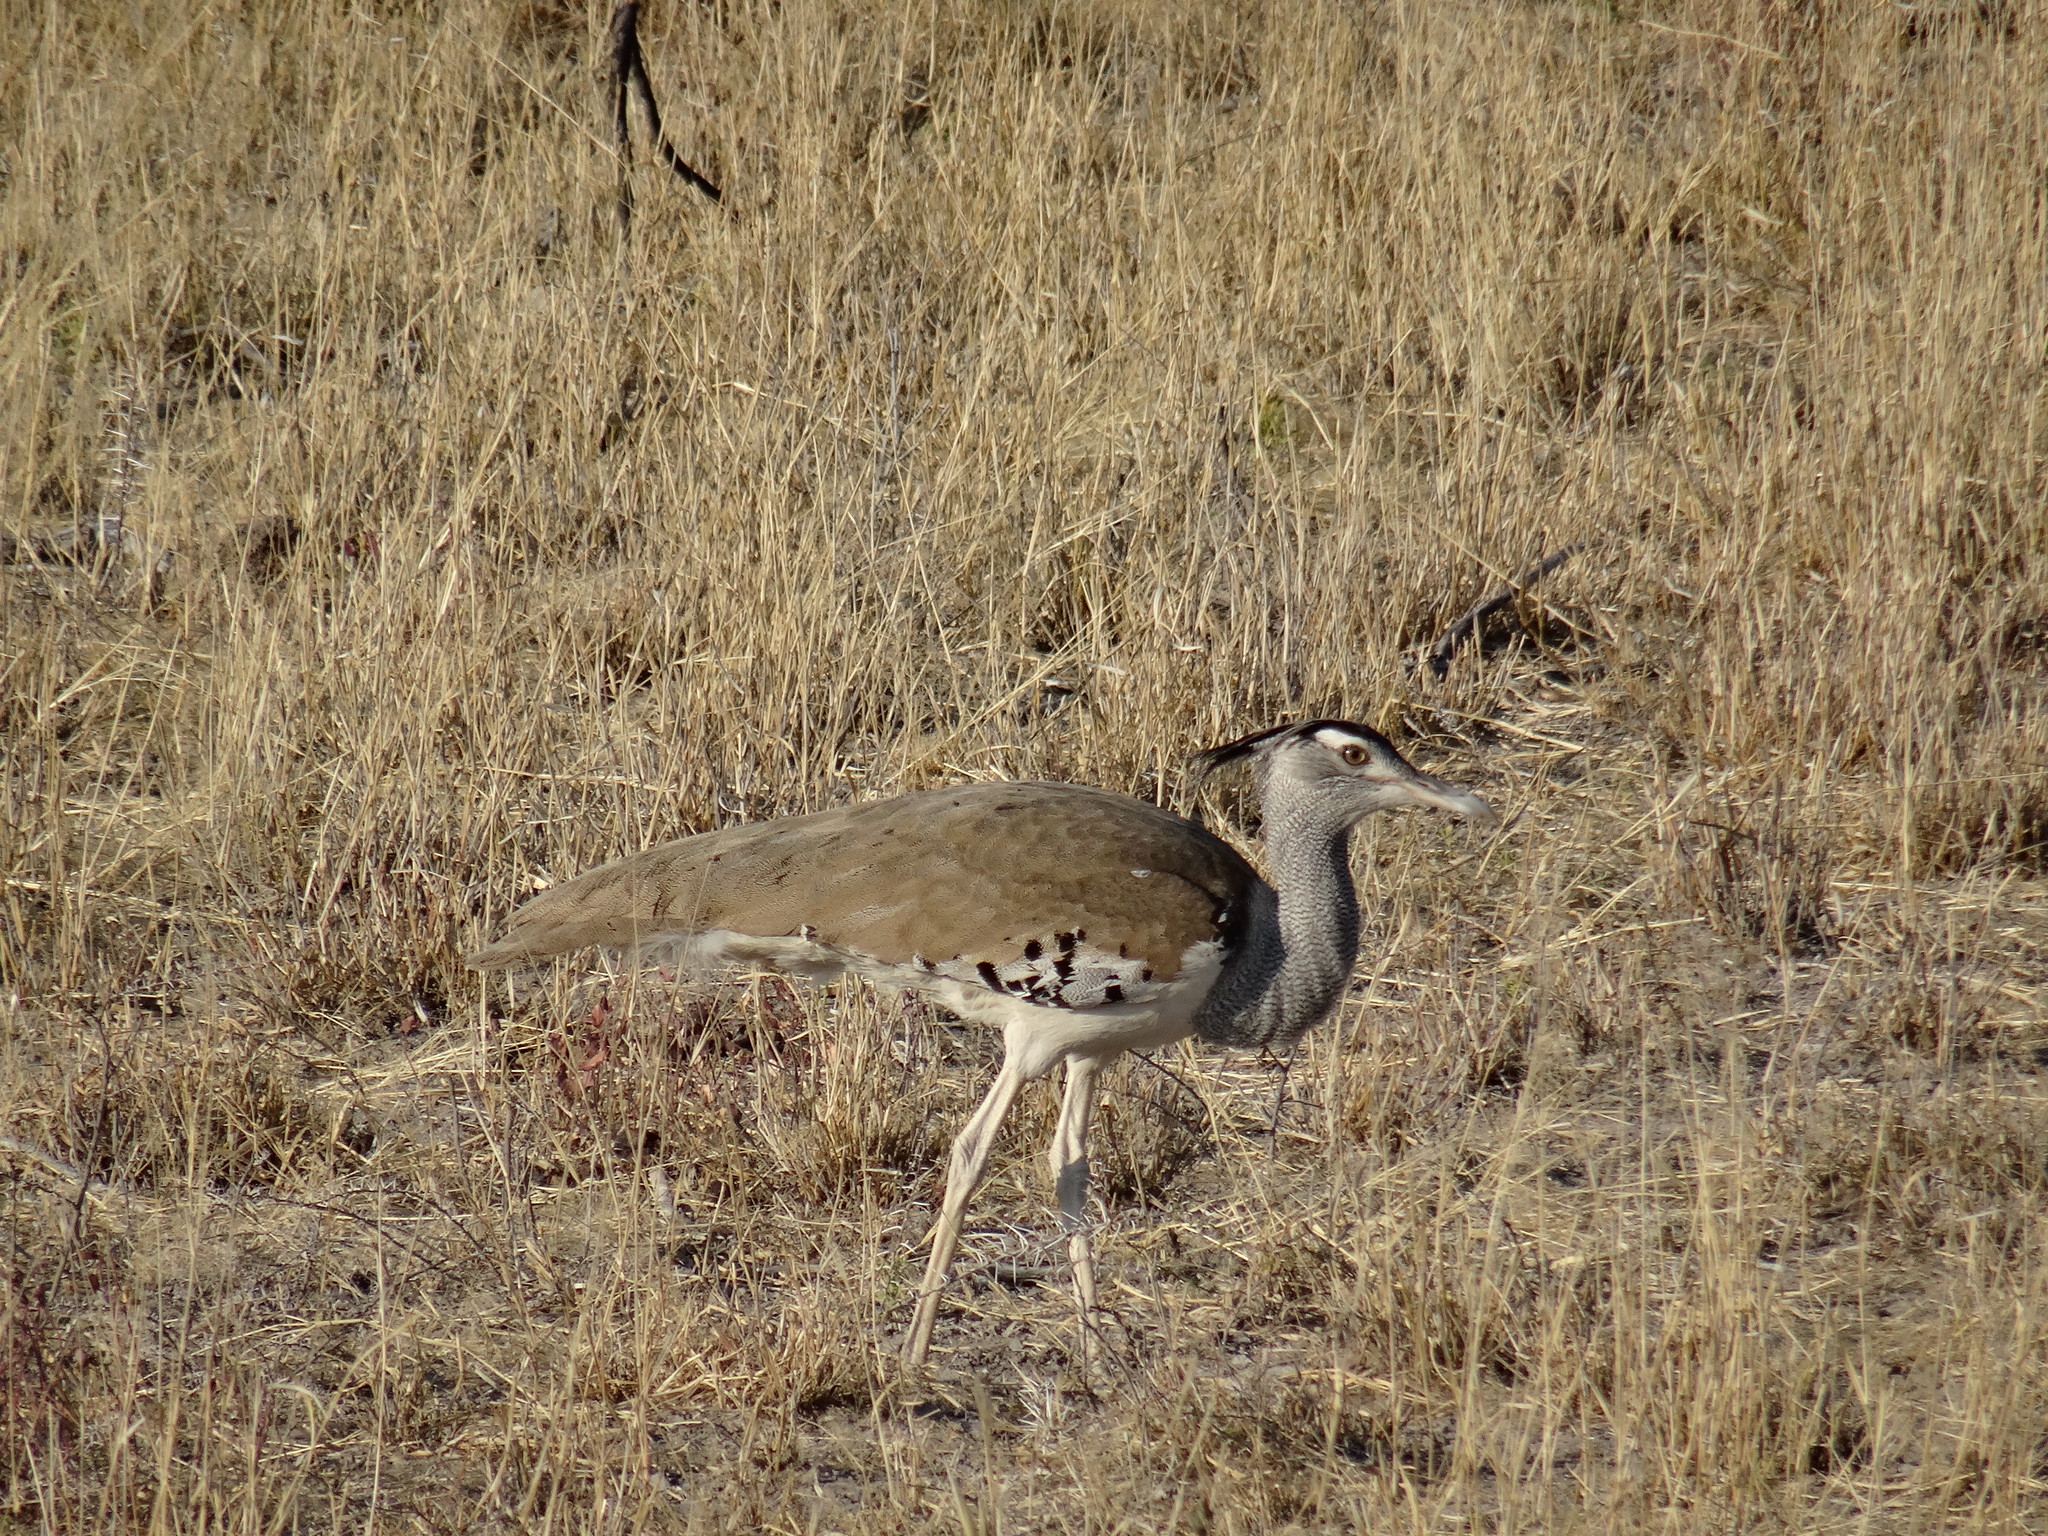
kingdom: Animalia
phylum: Chordata
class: Aves
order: Otidiformes
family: Otididae
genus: Ardeotis
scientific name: Ardeotis kori
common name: Kori bustard
